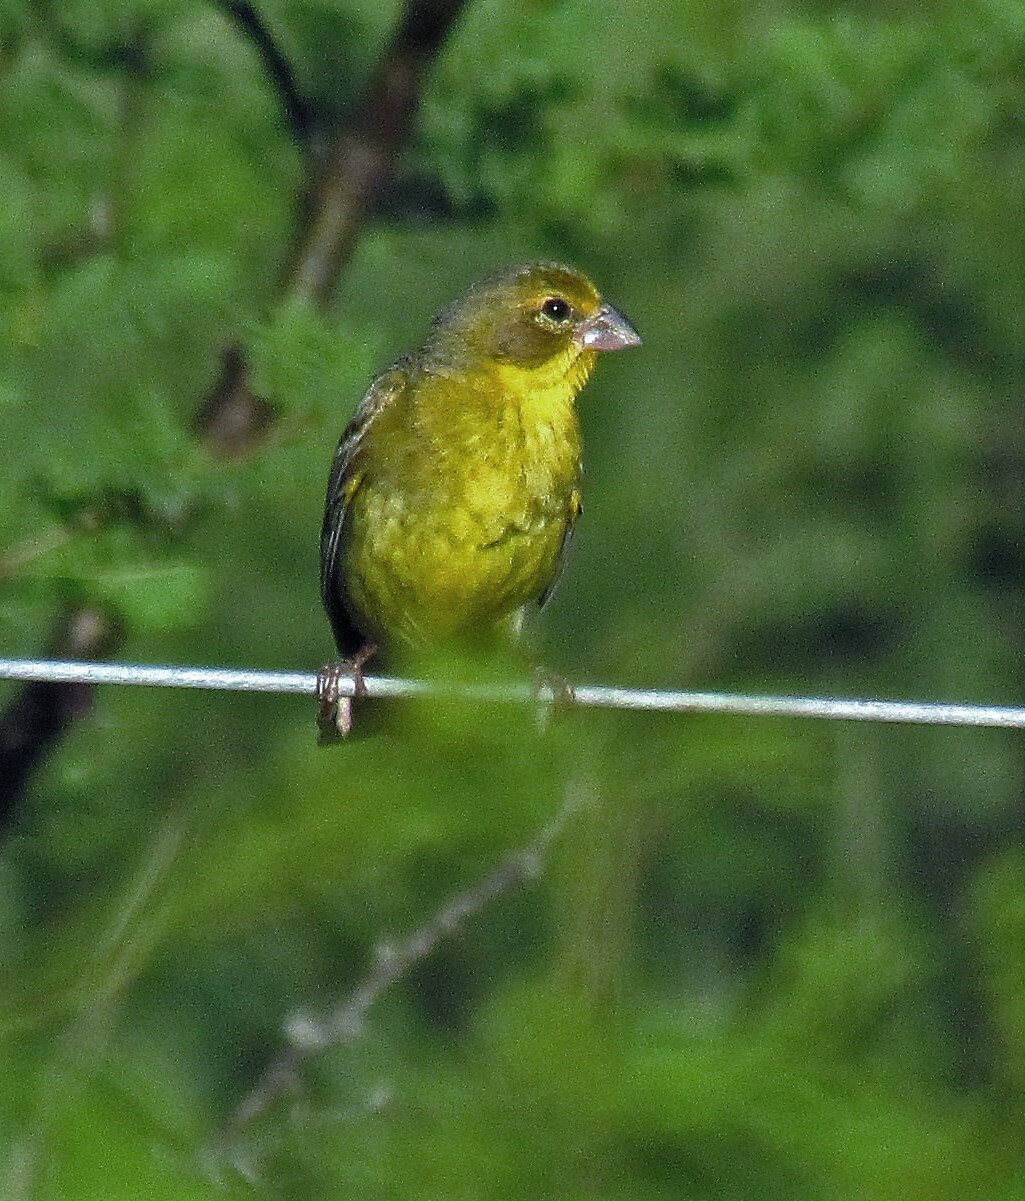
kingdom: Animalia
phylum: Chordata
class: Aves
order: Passeriformes
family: Thraupidae
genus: Sicalis
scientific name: Sicalis luteola
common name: Grassland yellow-finch
